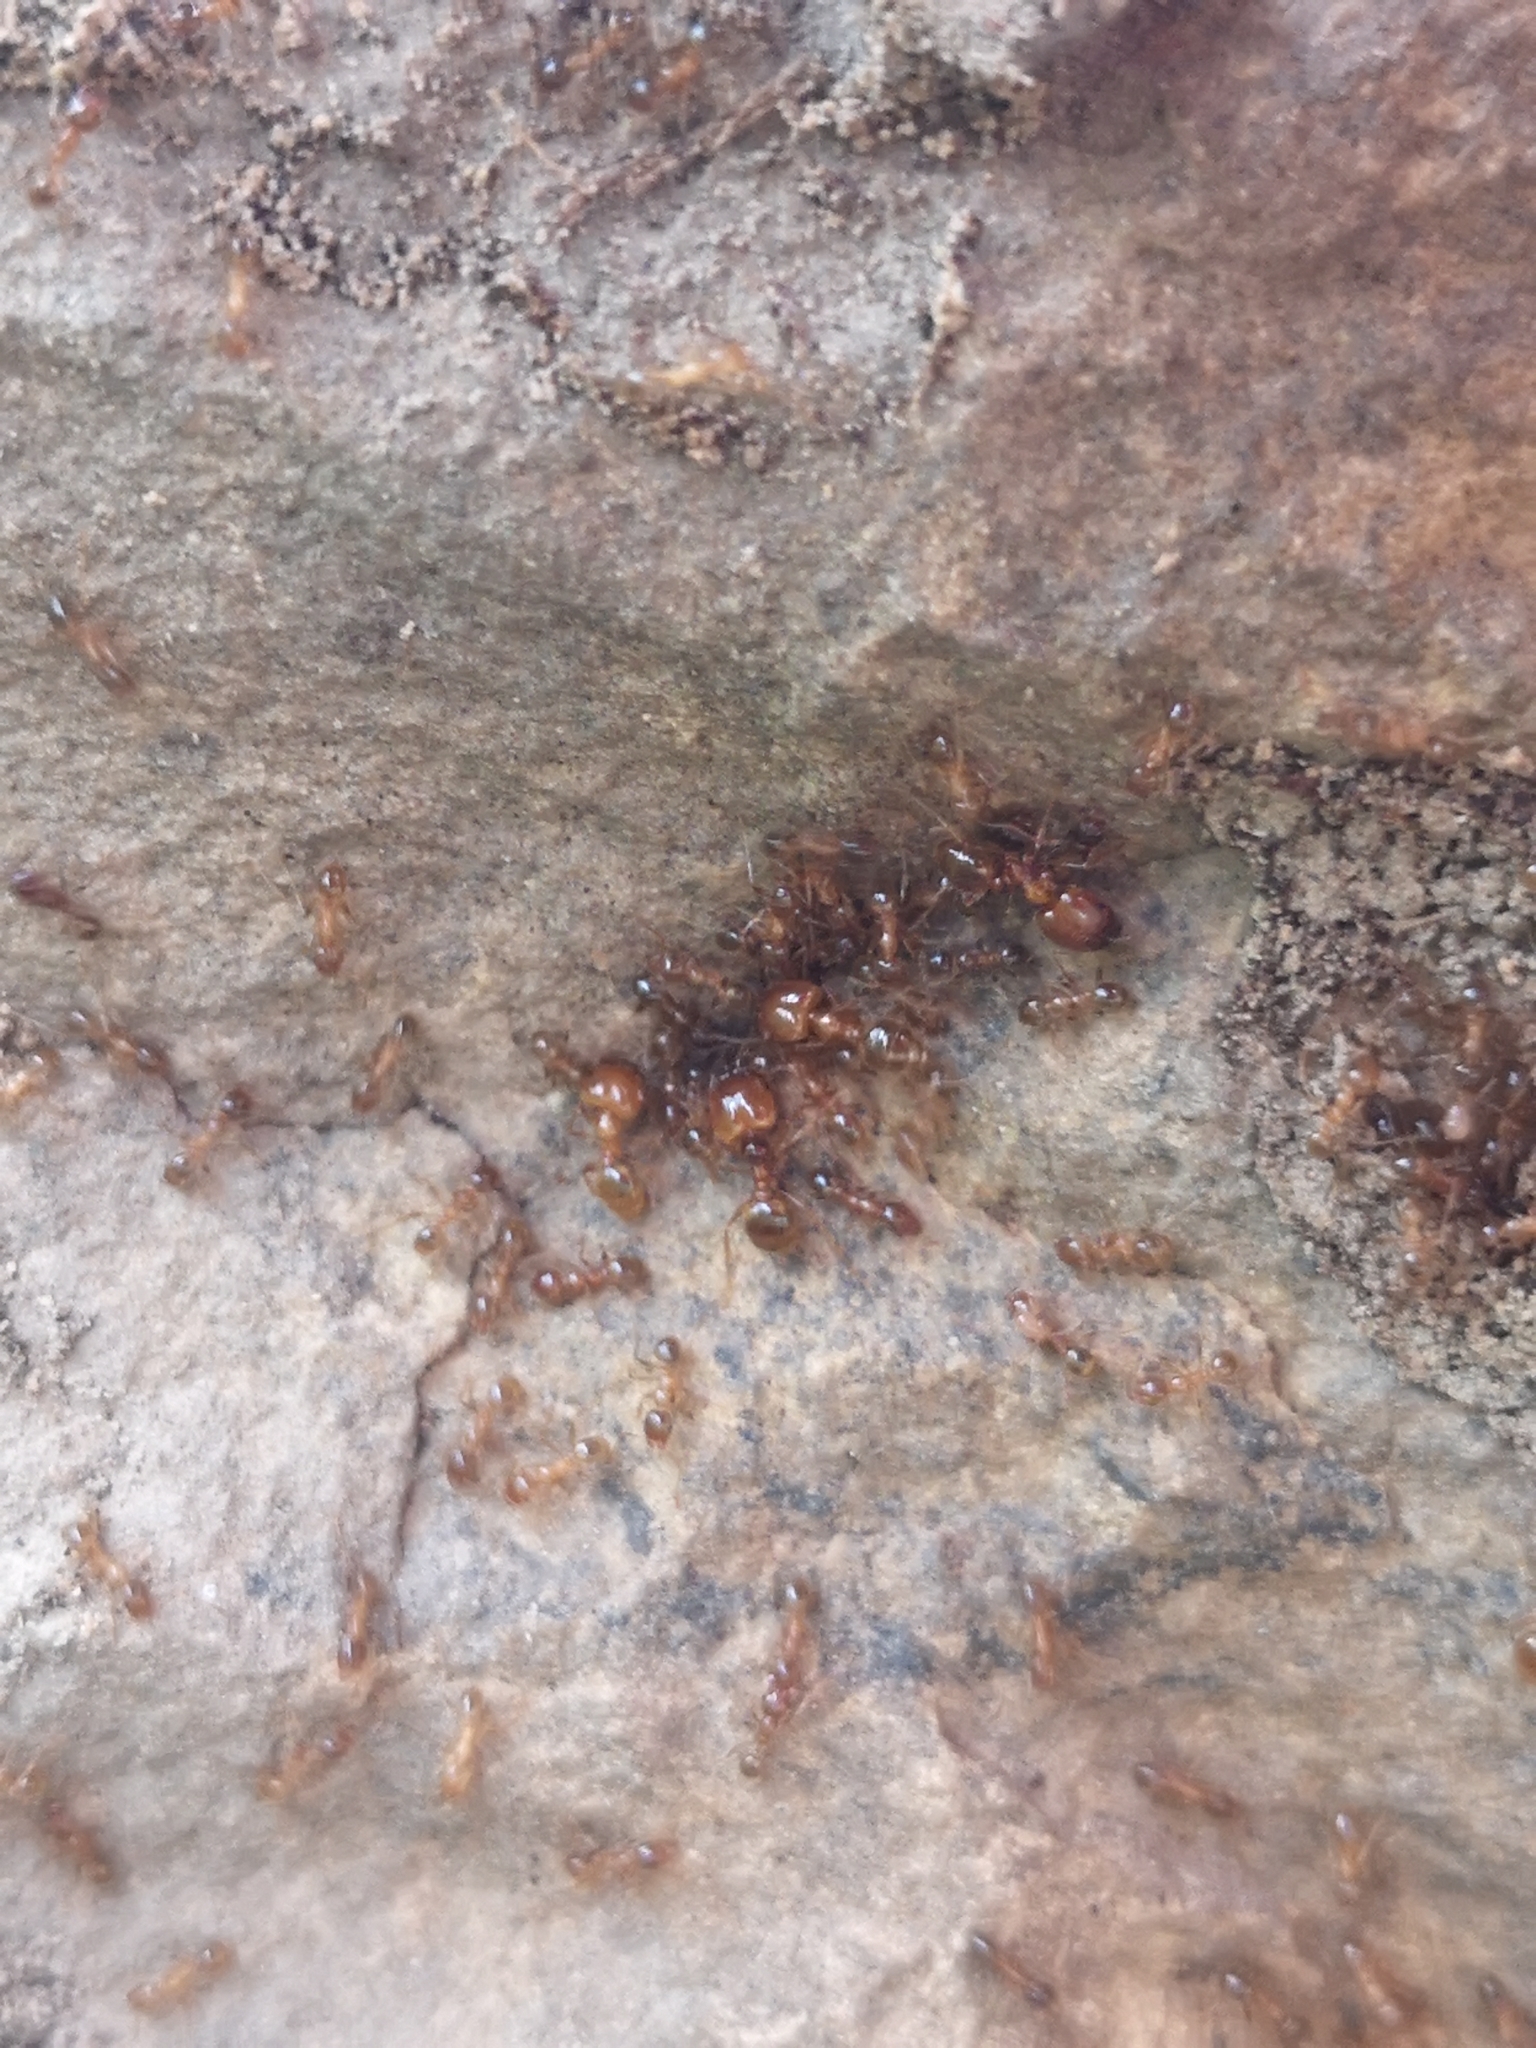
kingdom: Animalia
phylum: Arthropoda
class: Insecta
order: Hymenoptera
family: Formicidae
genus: Pheidole
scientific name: Pheidole pallidula
